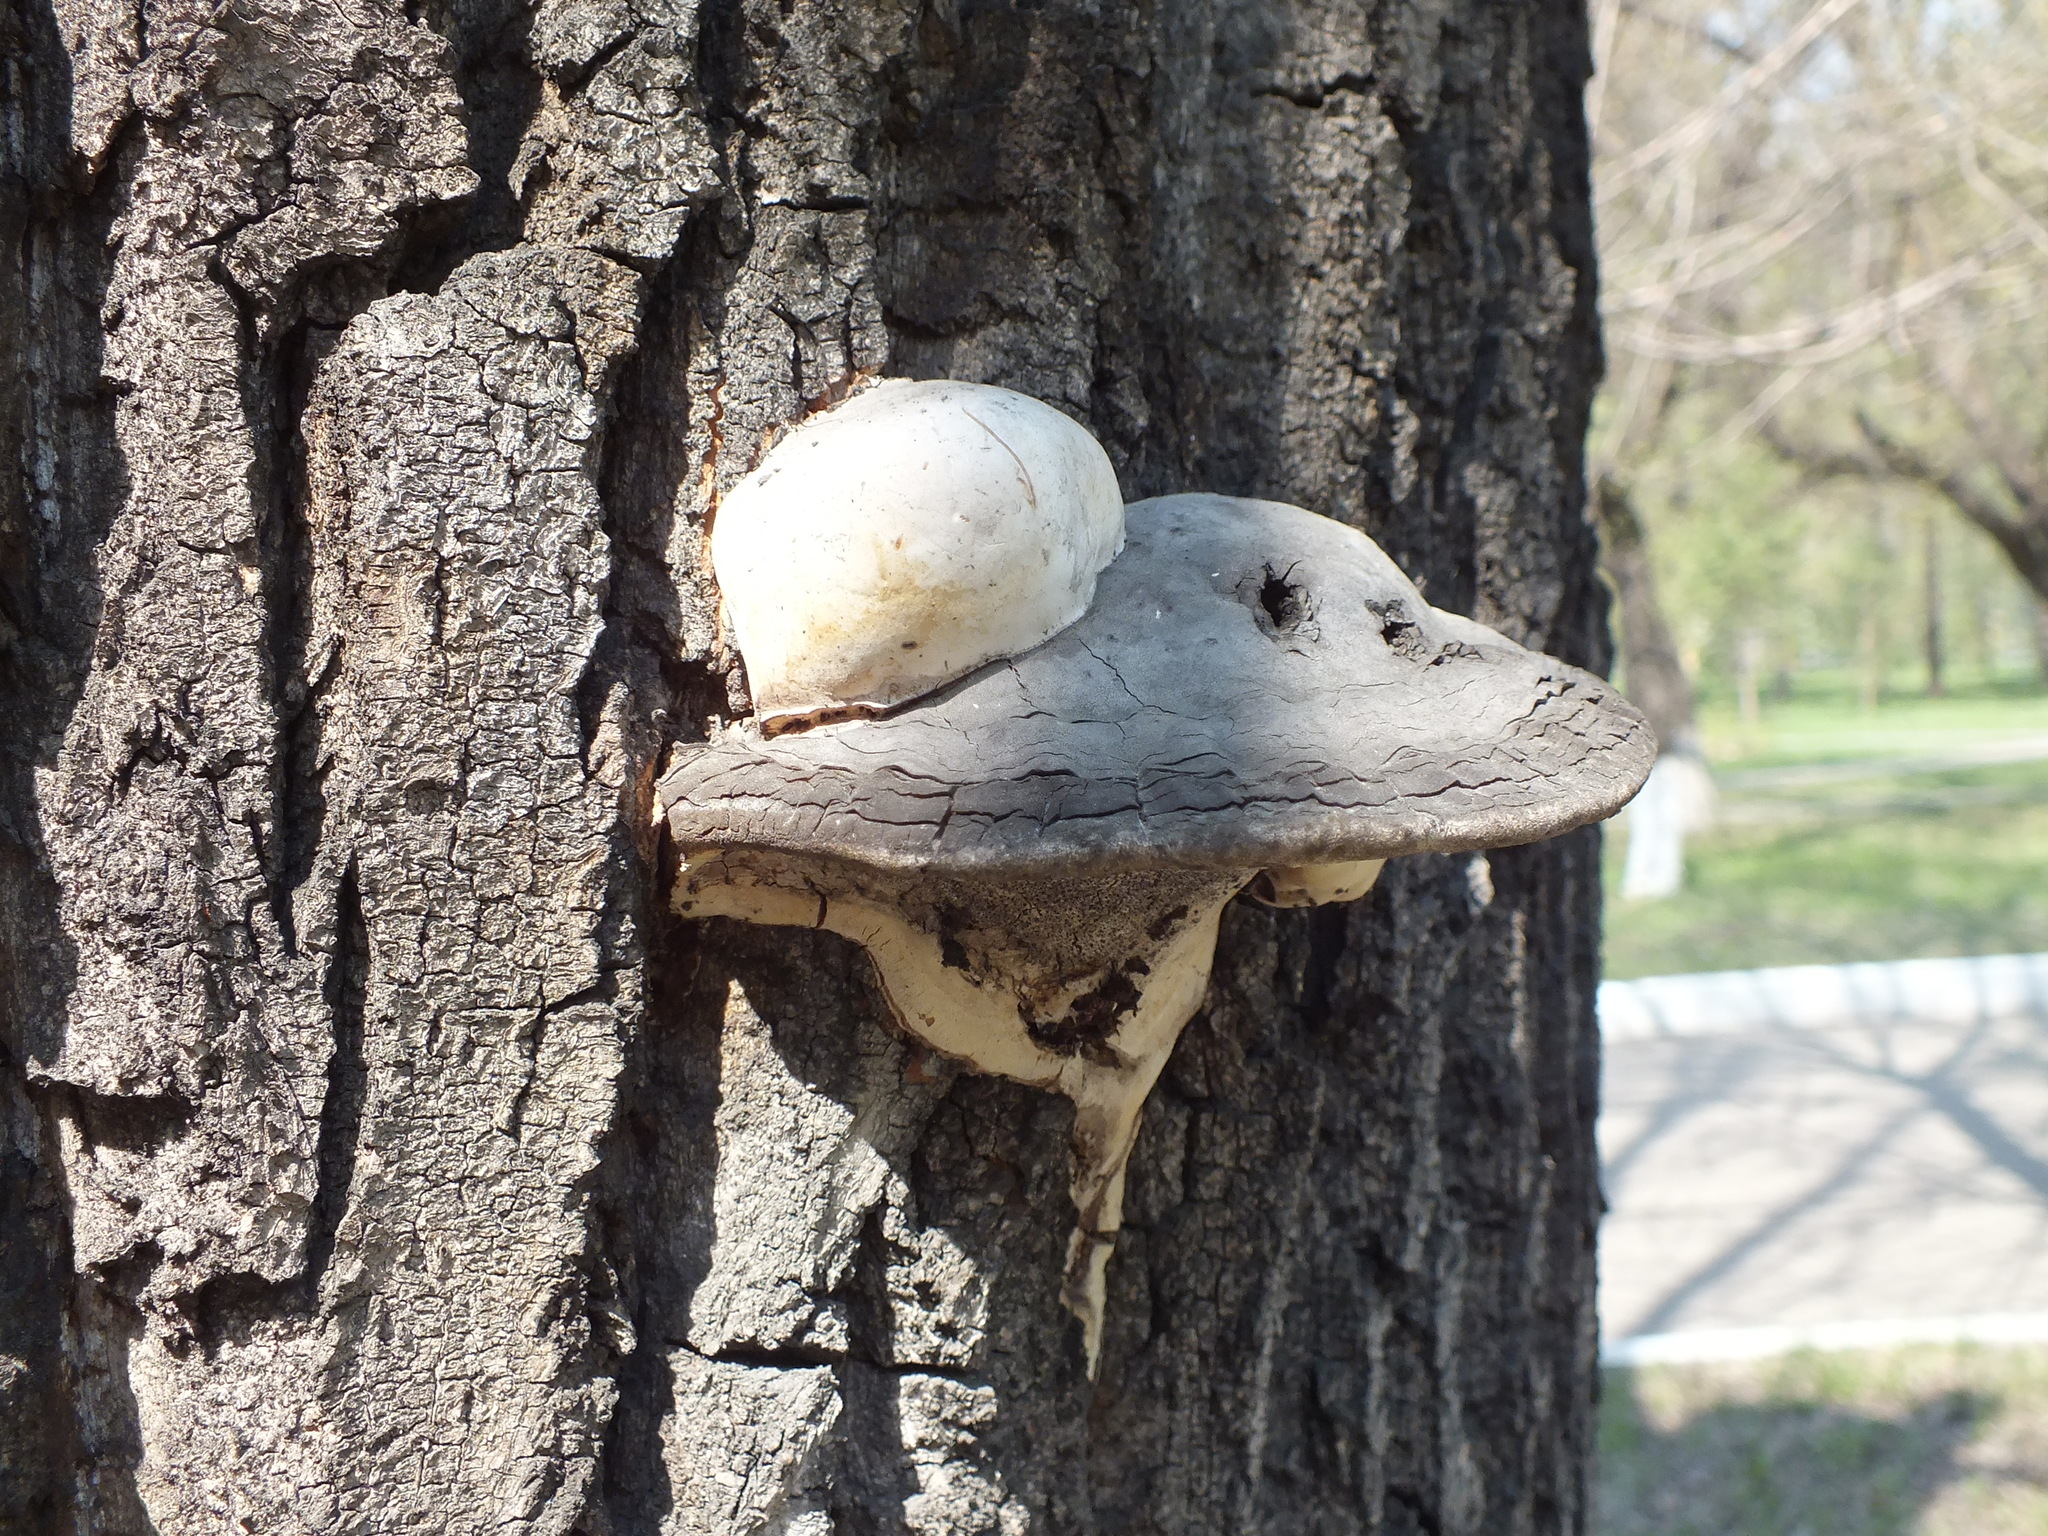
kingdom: Fungi
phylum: Basidiomycota
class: Agaricomycetes
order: Polyporales
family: Polyporaceae
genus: Fomes
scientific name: Fomes fomentarius
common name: Hoof fungus
